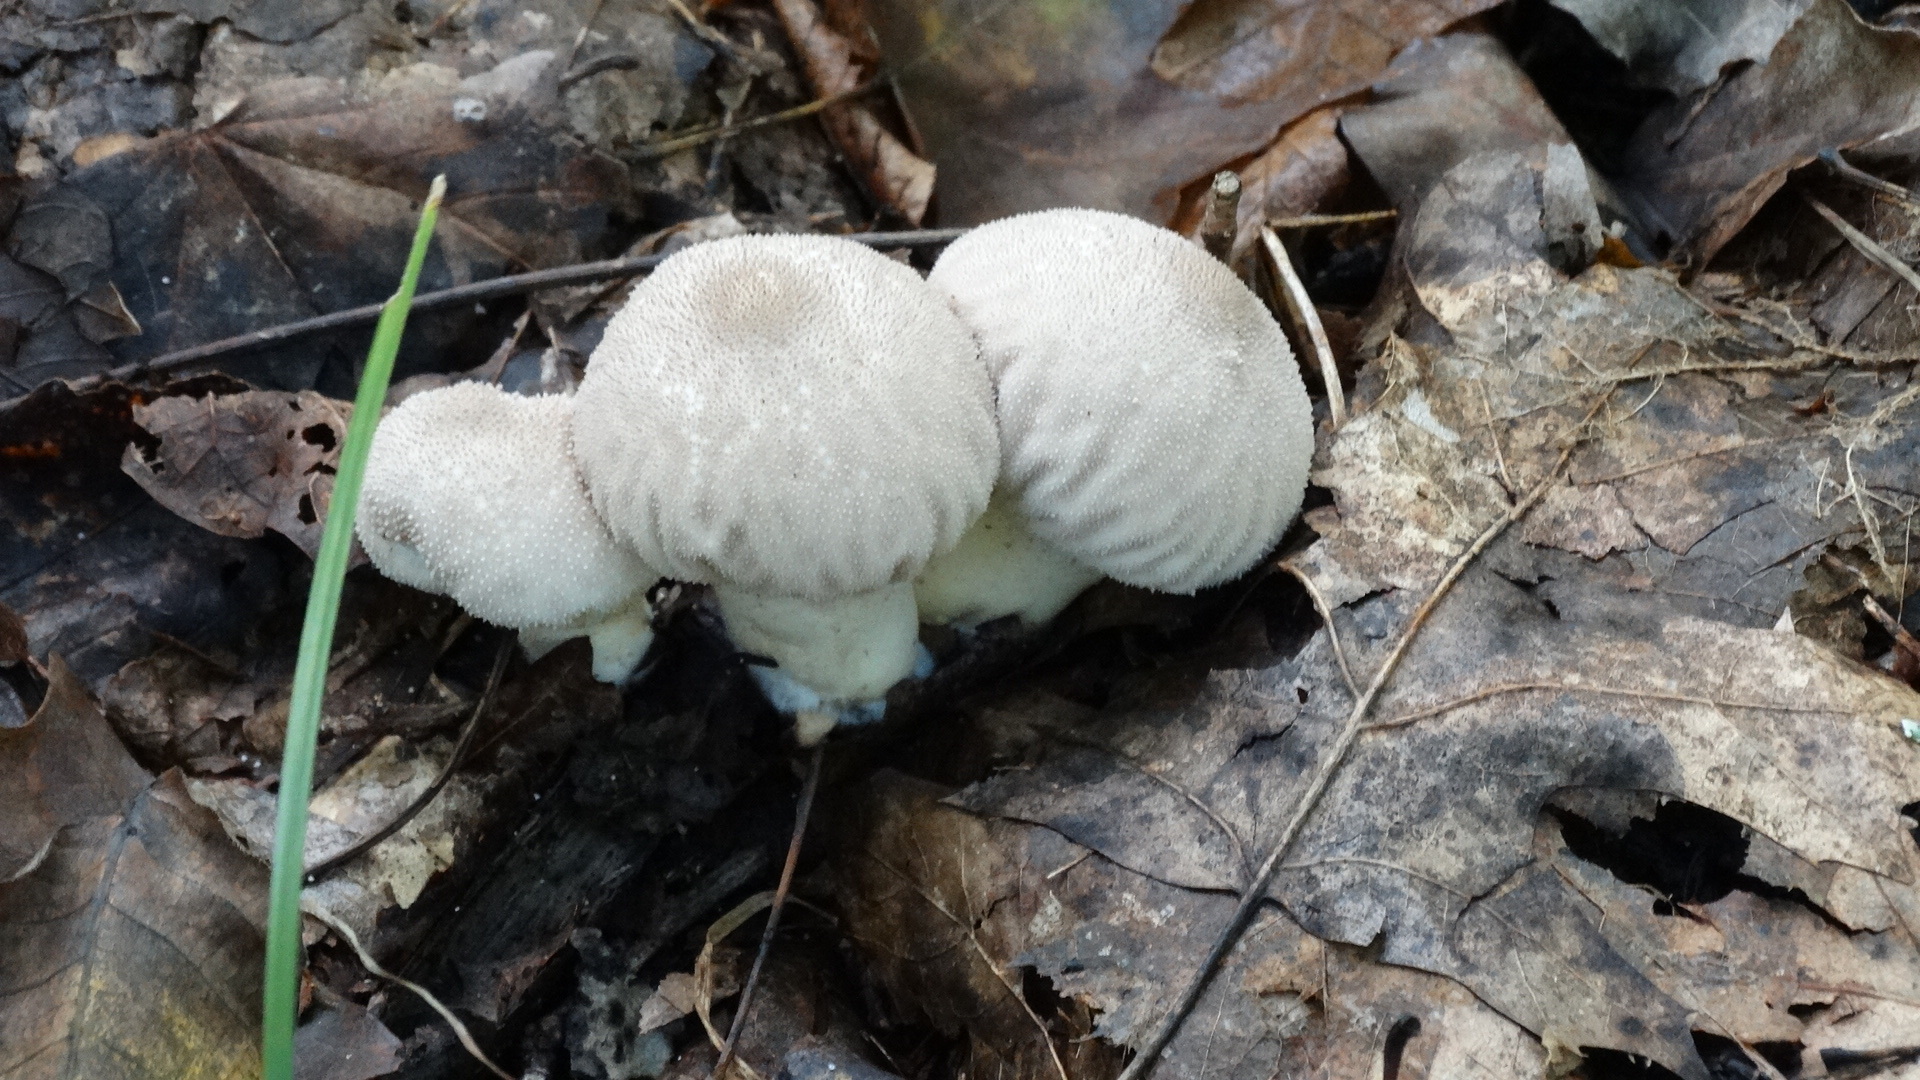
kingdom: Fungi
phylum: Basidiomycota
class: Agaricomycetes
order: Agaricales
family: Lycoperdaceae
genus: Lycoperdon
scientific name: Lycoperdon perlatum
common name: Common puffball
